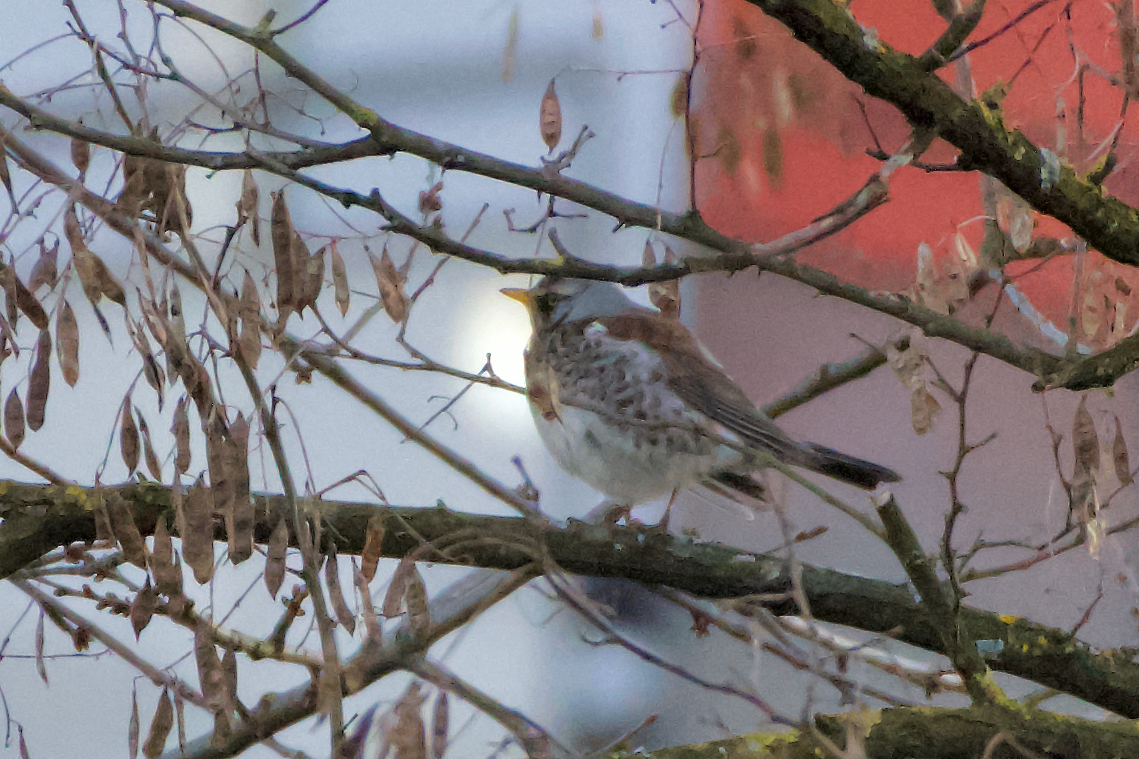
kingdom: Animalia
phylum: Chordata
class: Aves
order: Passeriformes
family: Turdidae
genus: Turdus
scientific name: Turdus pilaris
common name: Fieldfare
